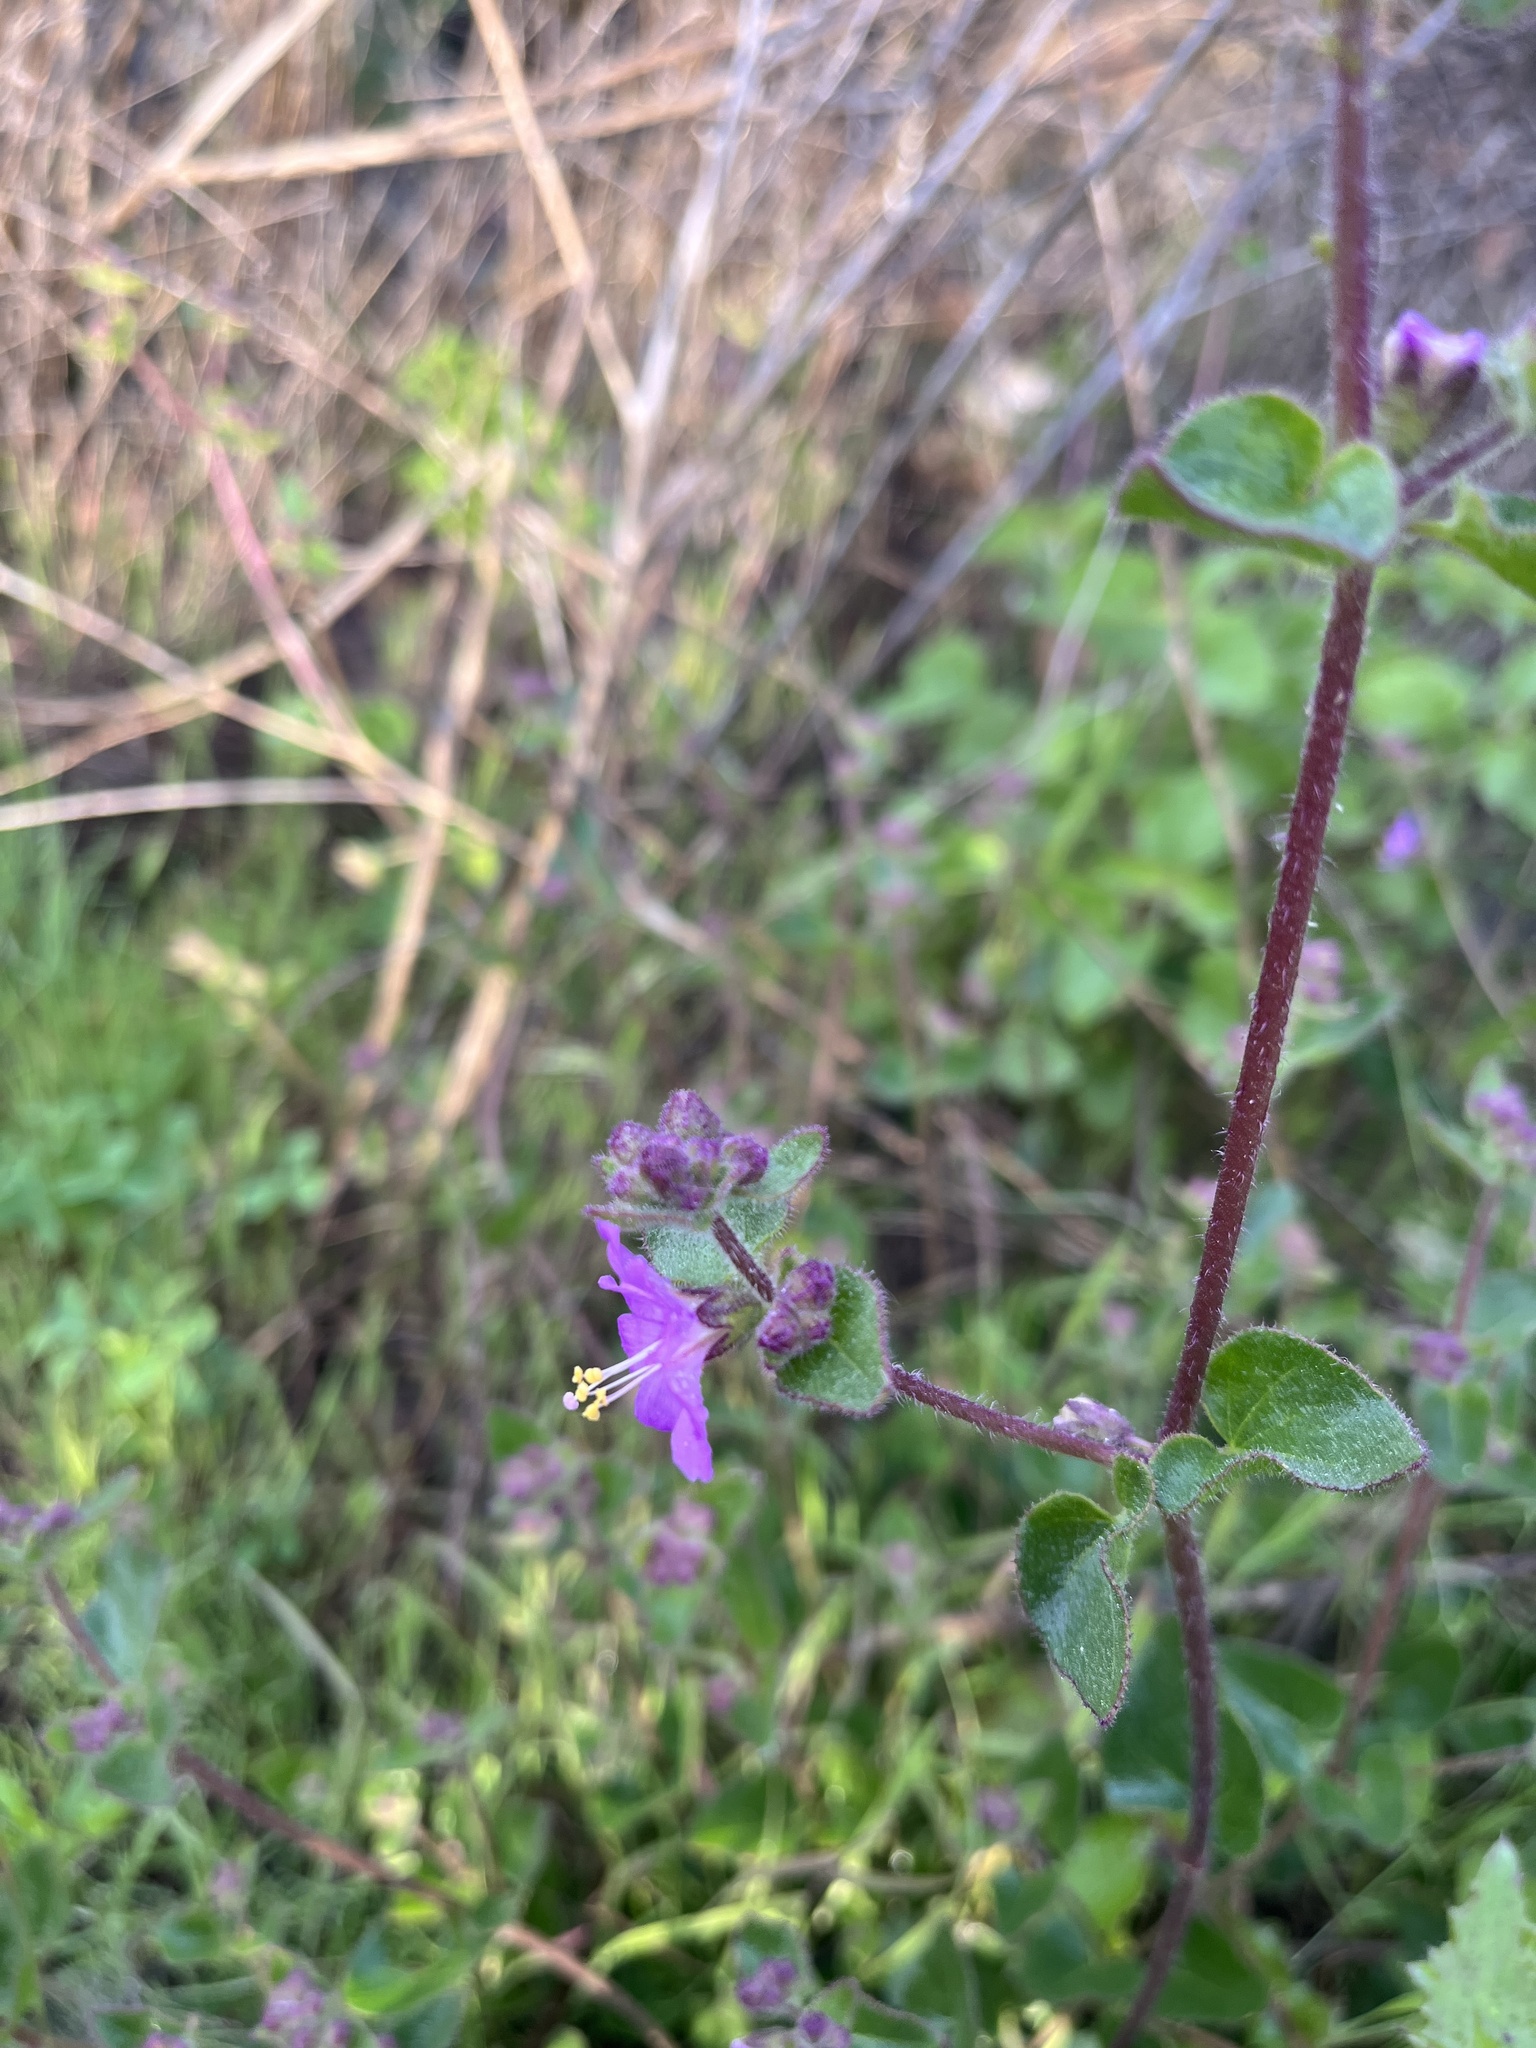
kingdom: Plantae
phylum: Tracheophyta
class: Magnoliopsida
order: Caryophyllales
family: Nyctaginaceae
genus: Mirabilis
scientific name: Mirabilis laevis
